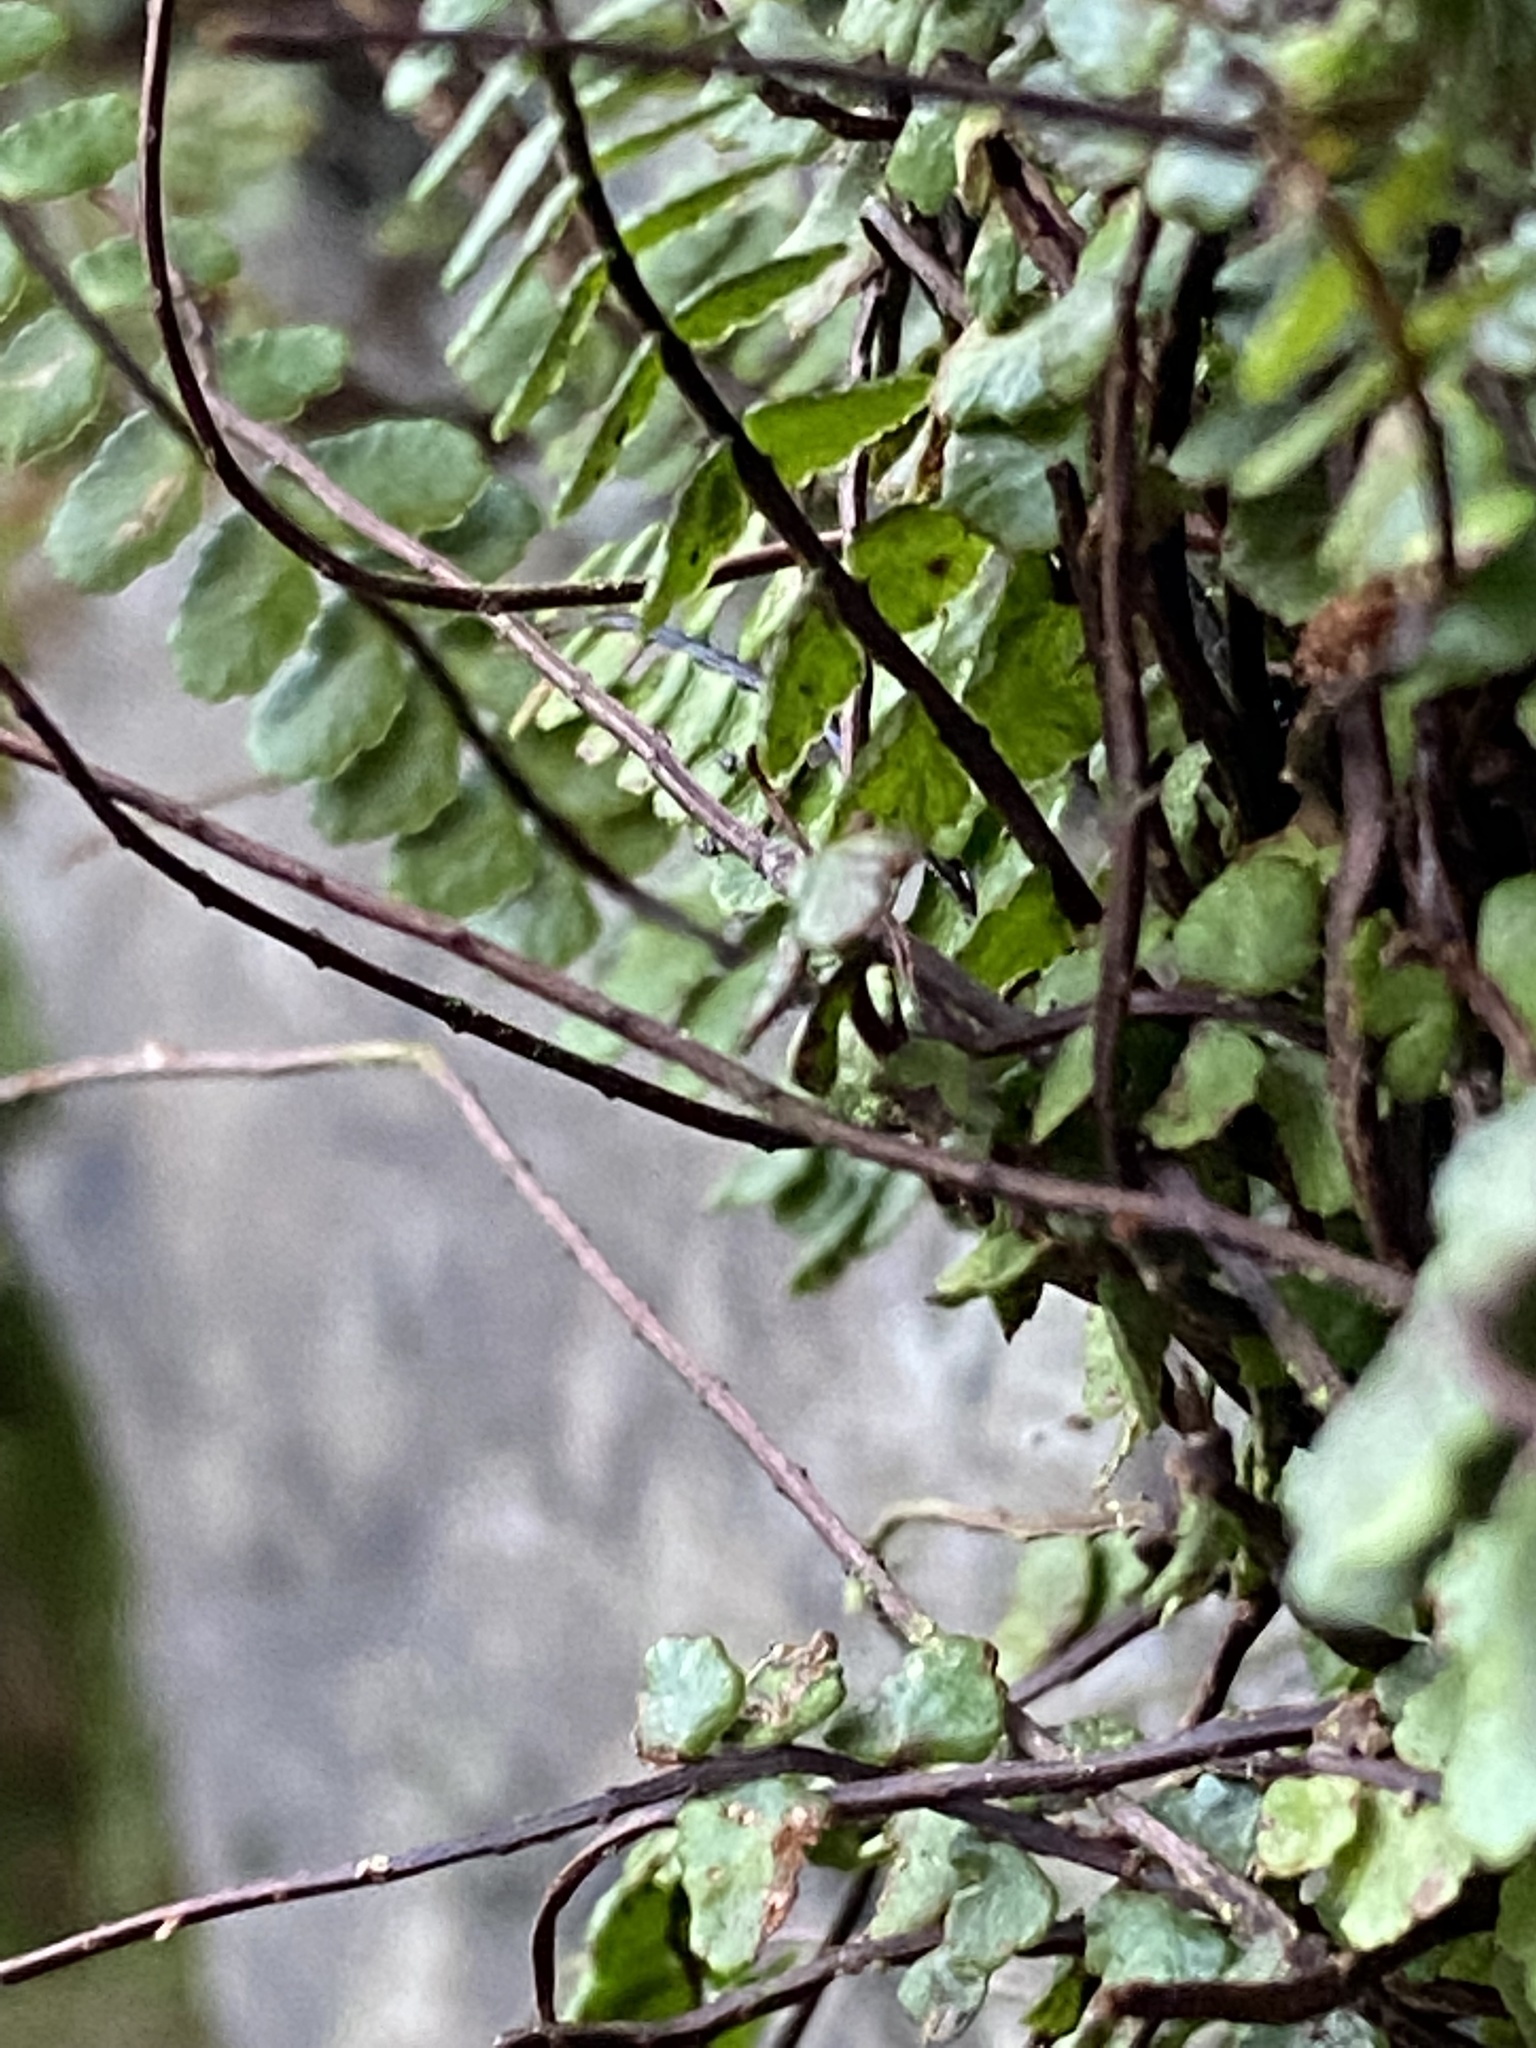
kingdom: Plantae
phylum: Tracheophyta
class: Polypodiopsida
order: Polypodiales
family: Aspleniaceae
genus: Asplenium
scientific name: Asplenium trichomanes
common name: Maidenhair spleenwort
